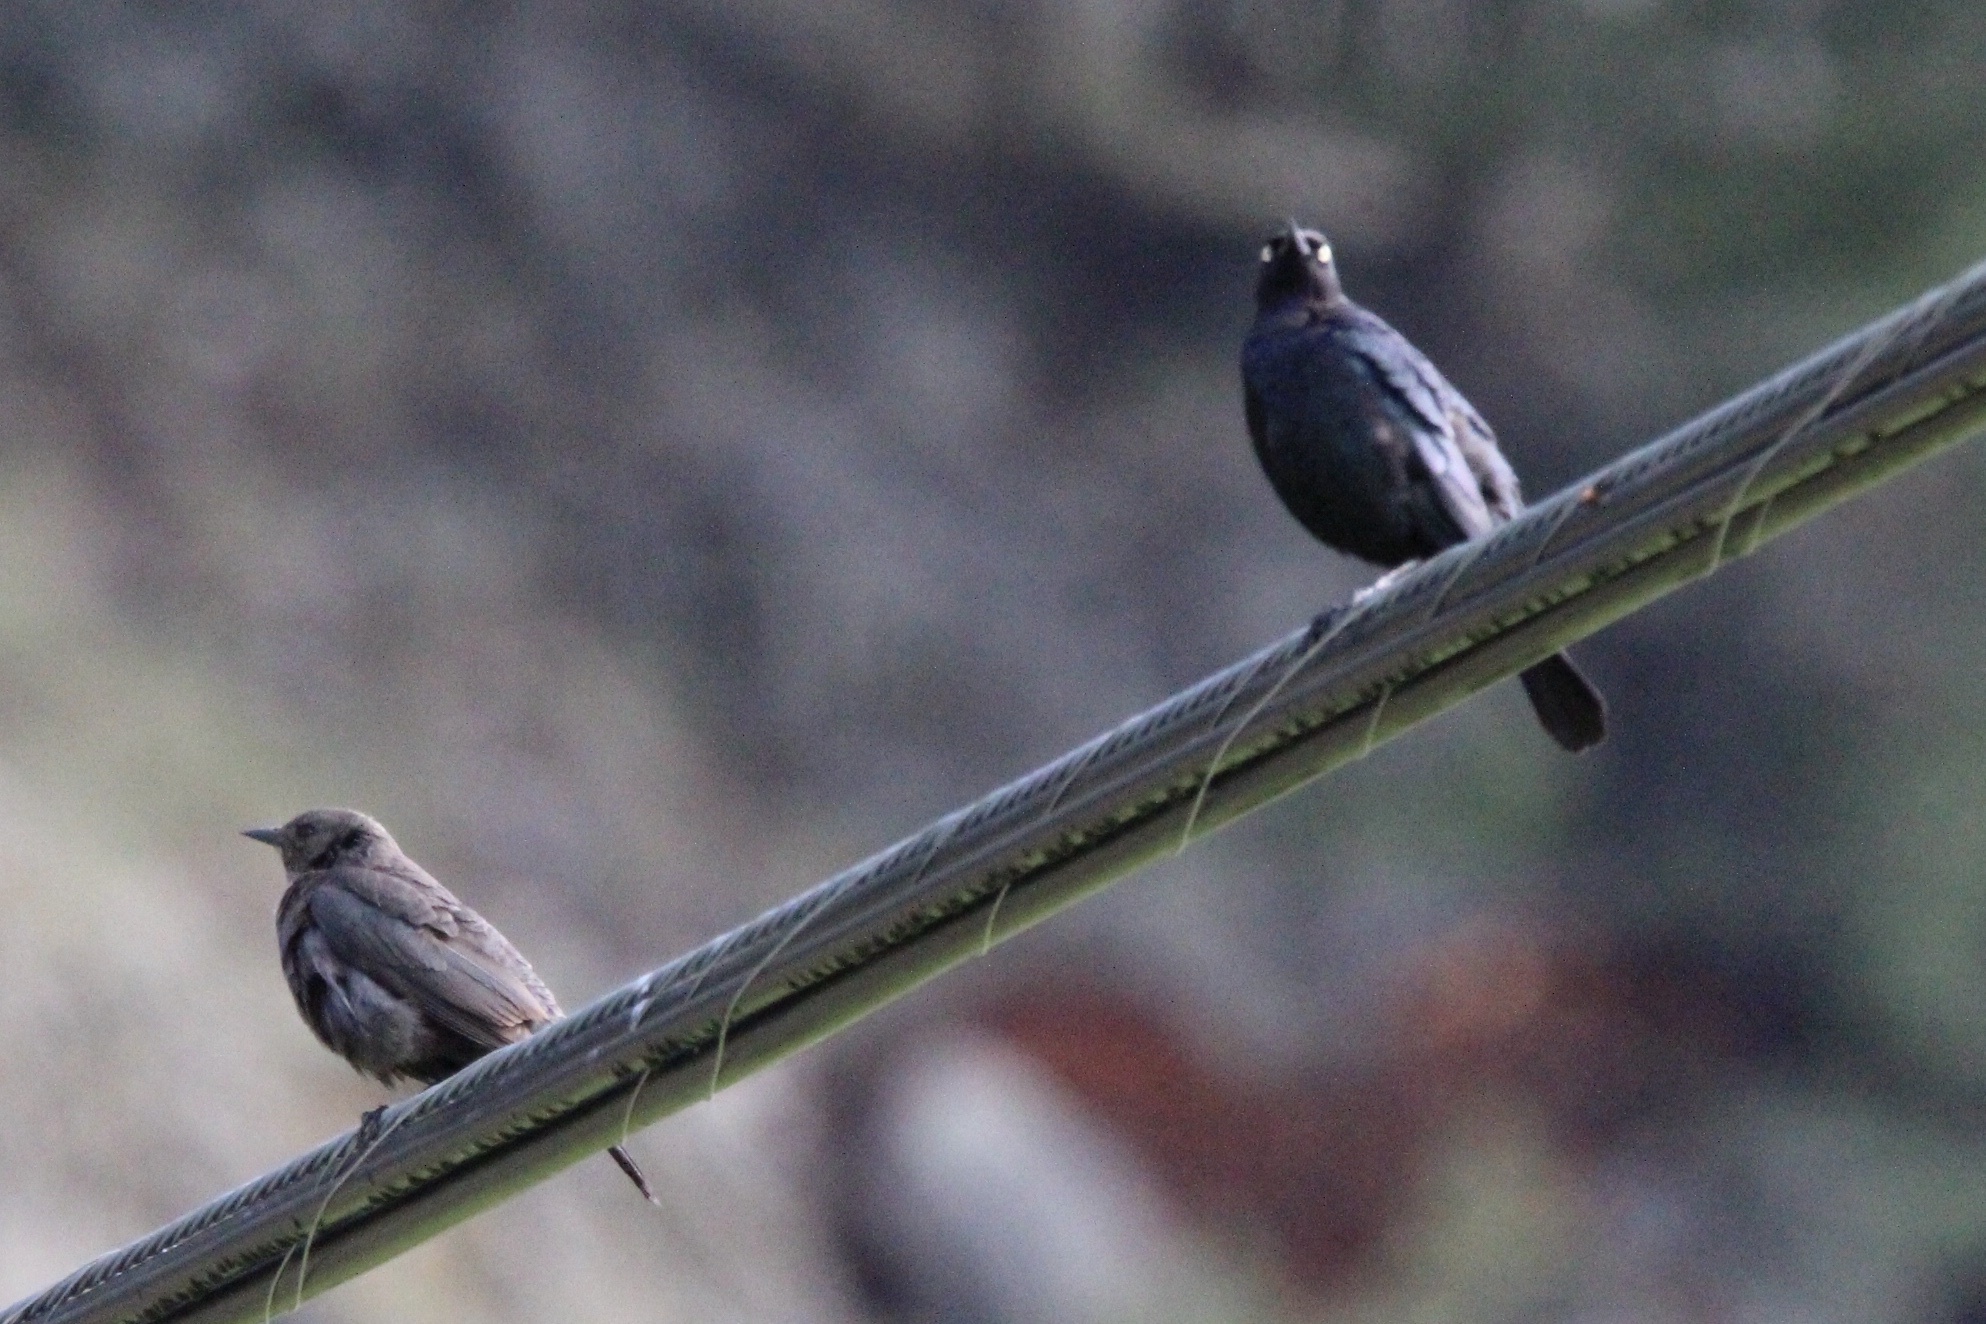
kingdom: Animalia
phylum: Chordata
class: Aves
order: Passeriformes
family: Icteridae
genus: Euphagus
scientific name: Euphagus cyanocephalus
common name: Brewer's blackbird
